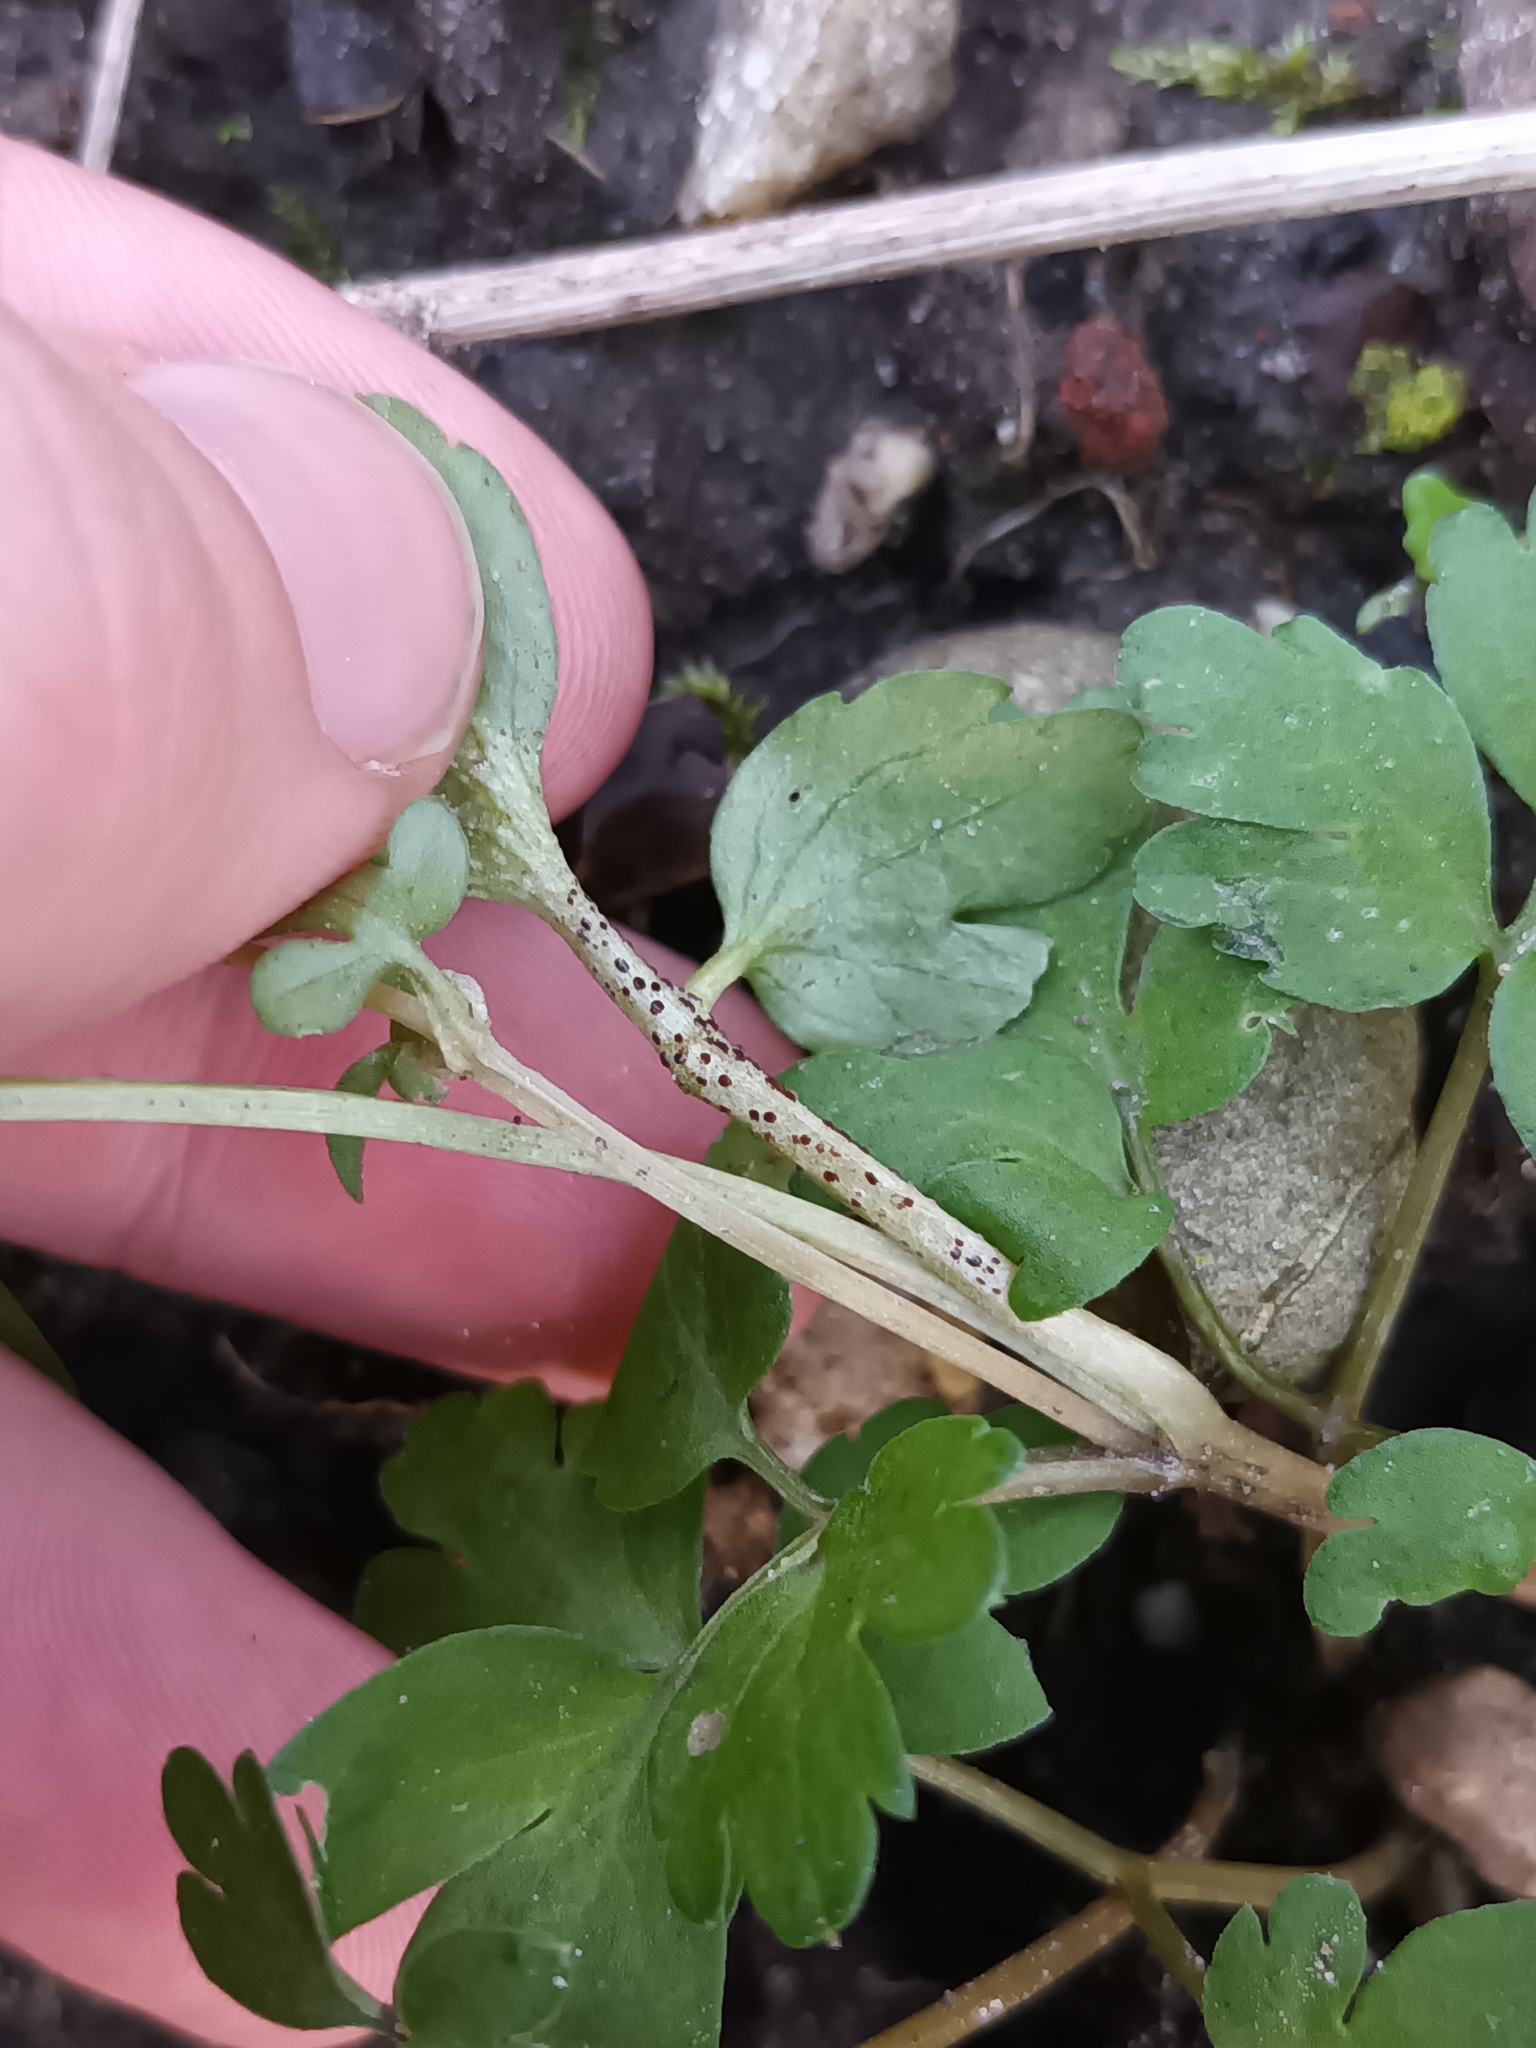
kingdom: Fungi
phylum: Basidiomycota
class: Pucciniomycetes
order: Pucciniales
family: Pucciniaceae
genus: Puccinia
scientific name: Puccinia adoxae
